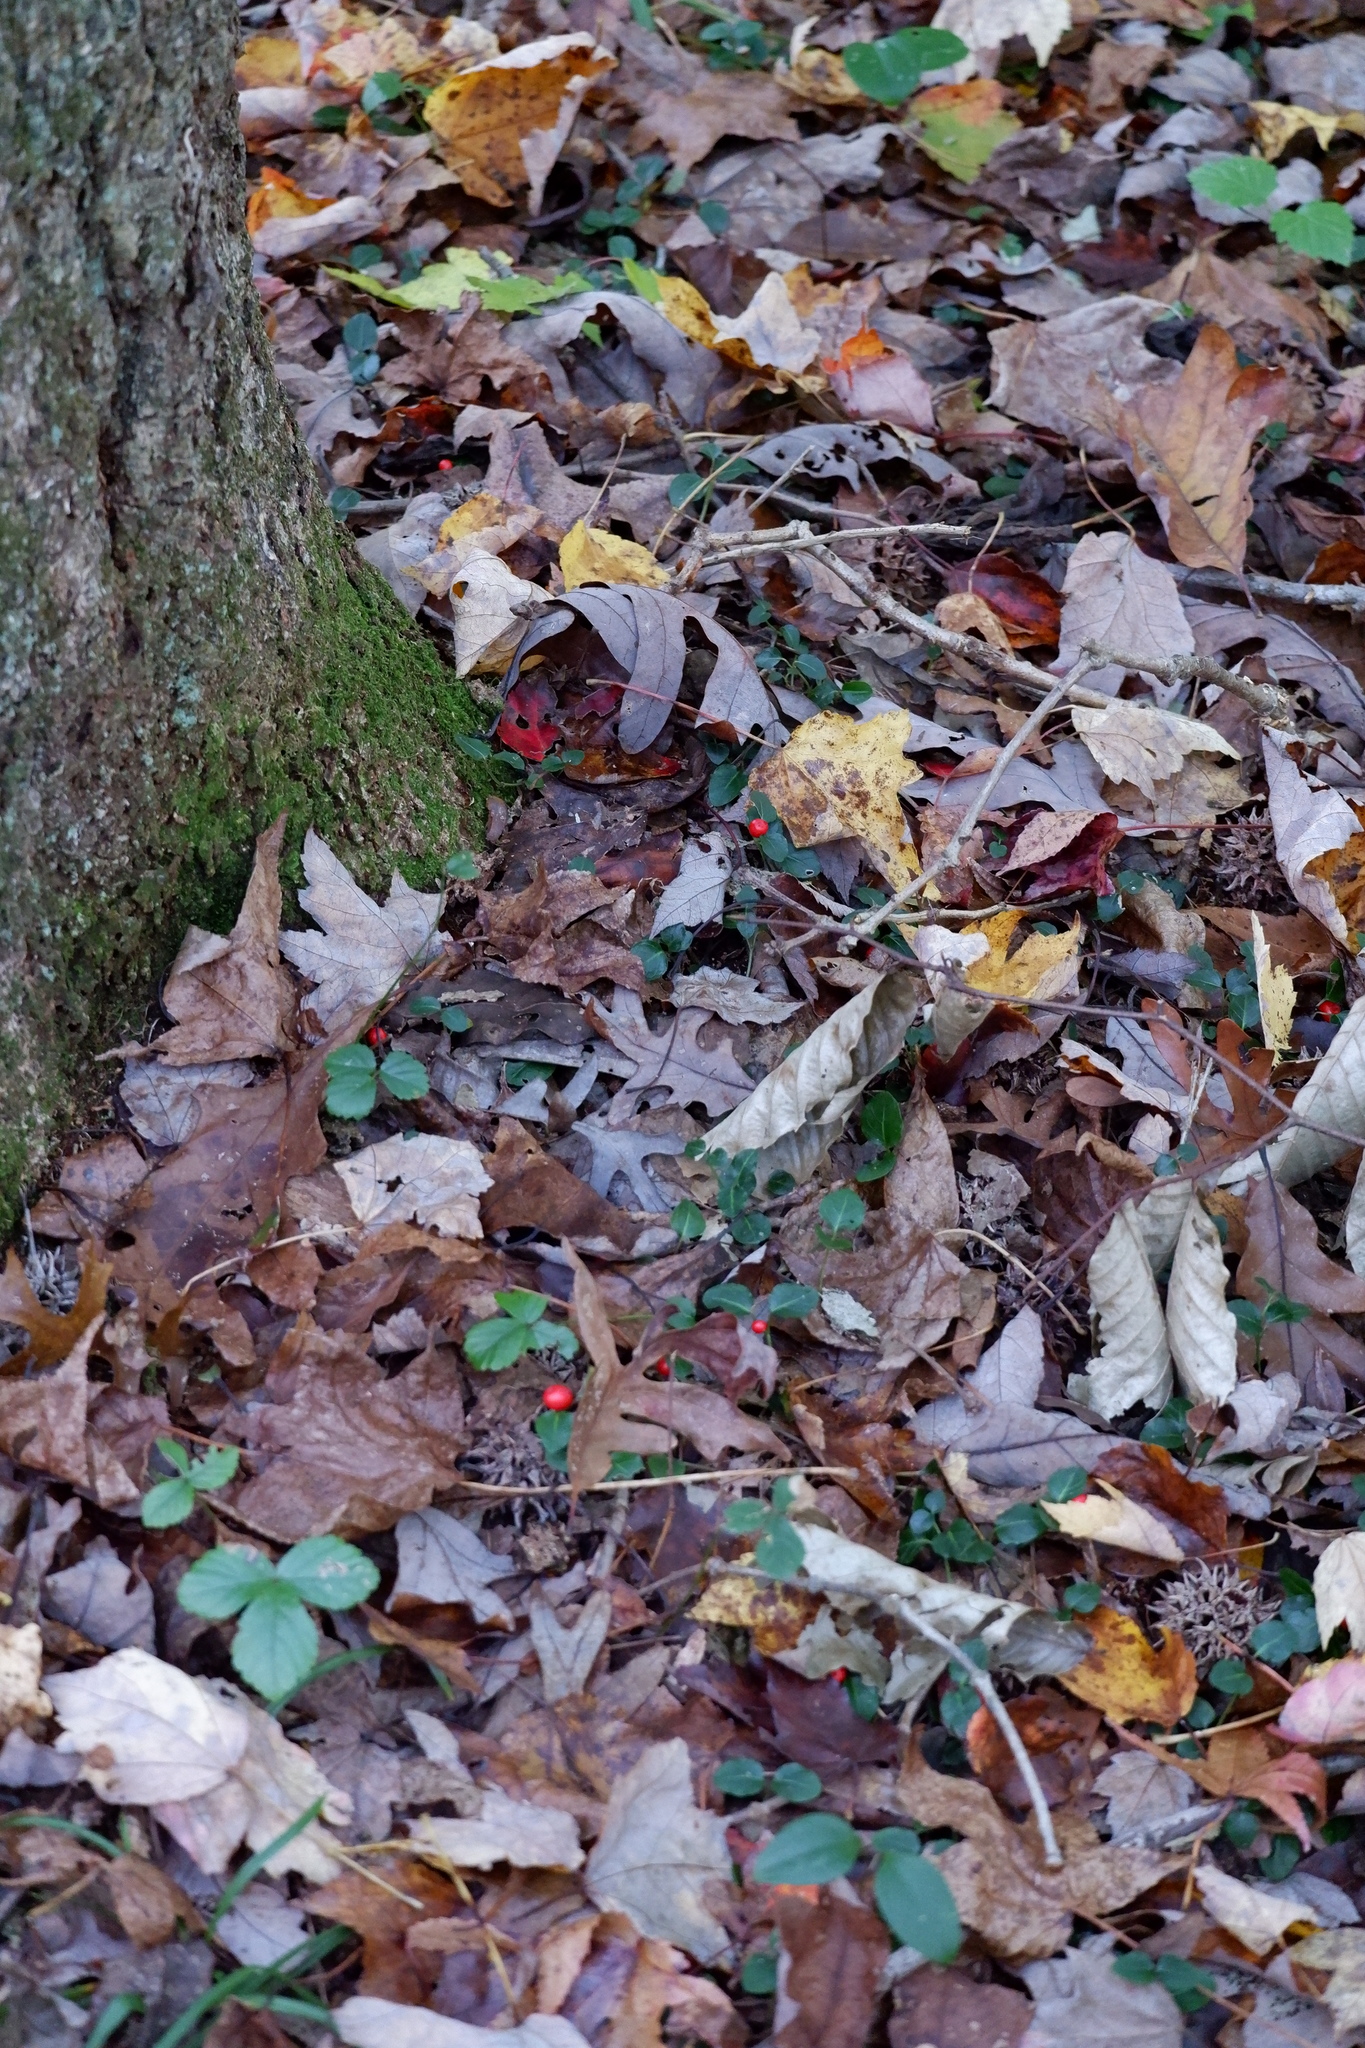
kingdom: Plantae
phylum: Tracheophyta
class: Magnoliopsida
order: Gentianales
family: Rubiaceae
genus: Mitchella
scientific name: Mitchella repens
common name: Partridge-berry
